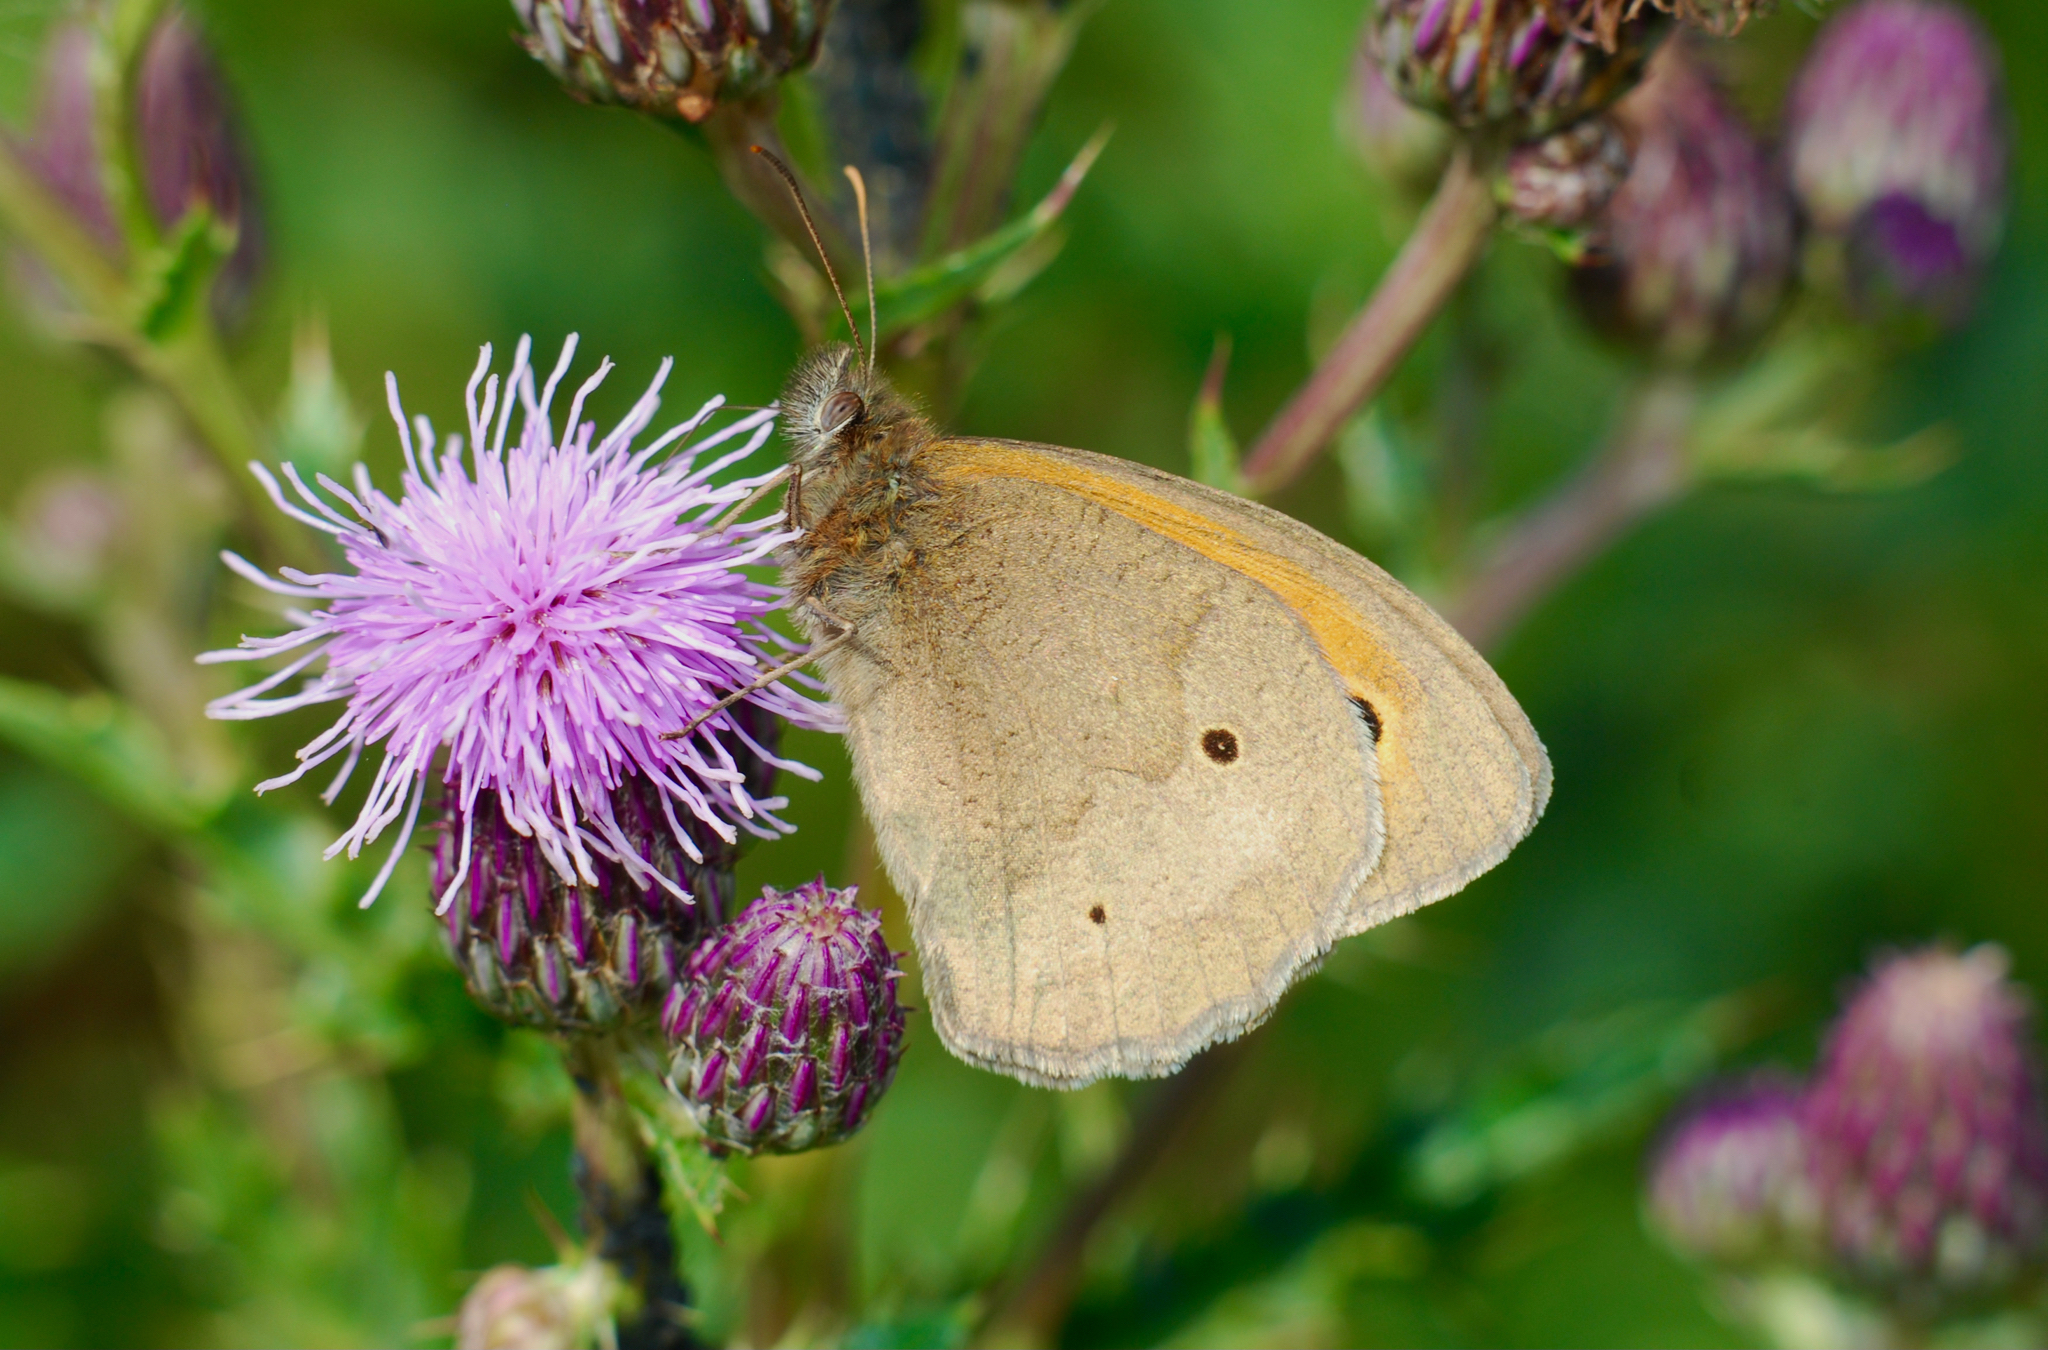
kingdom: Animalia
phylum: Arthropoda
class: Insecta
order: Lepidoptera
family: Nymphalidae
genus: Maniola
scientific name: Maniola jurtina
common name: Meadow brown
